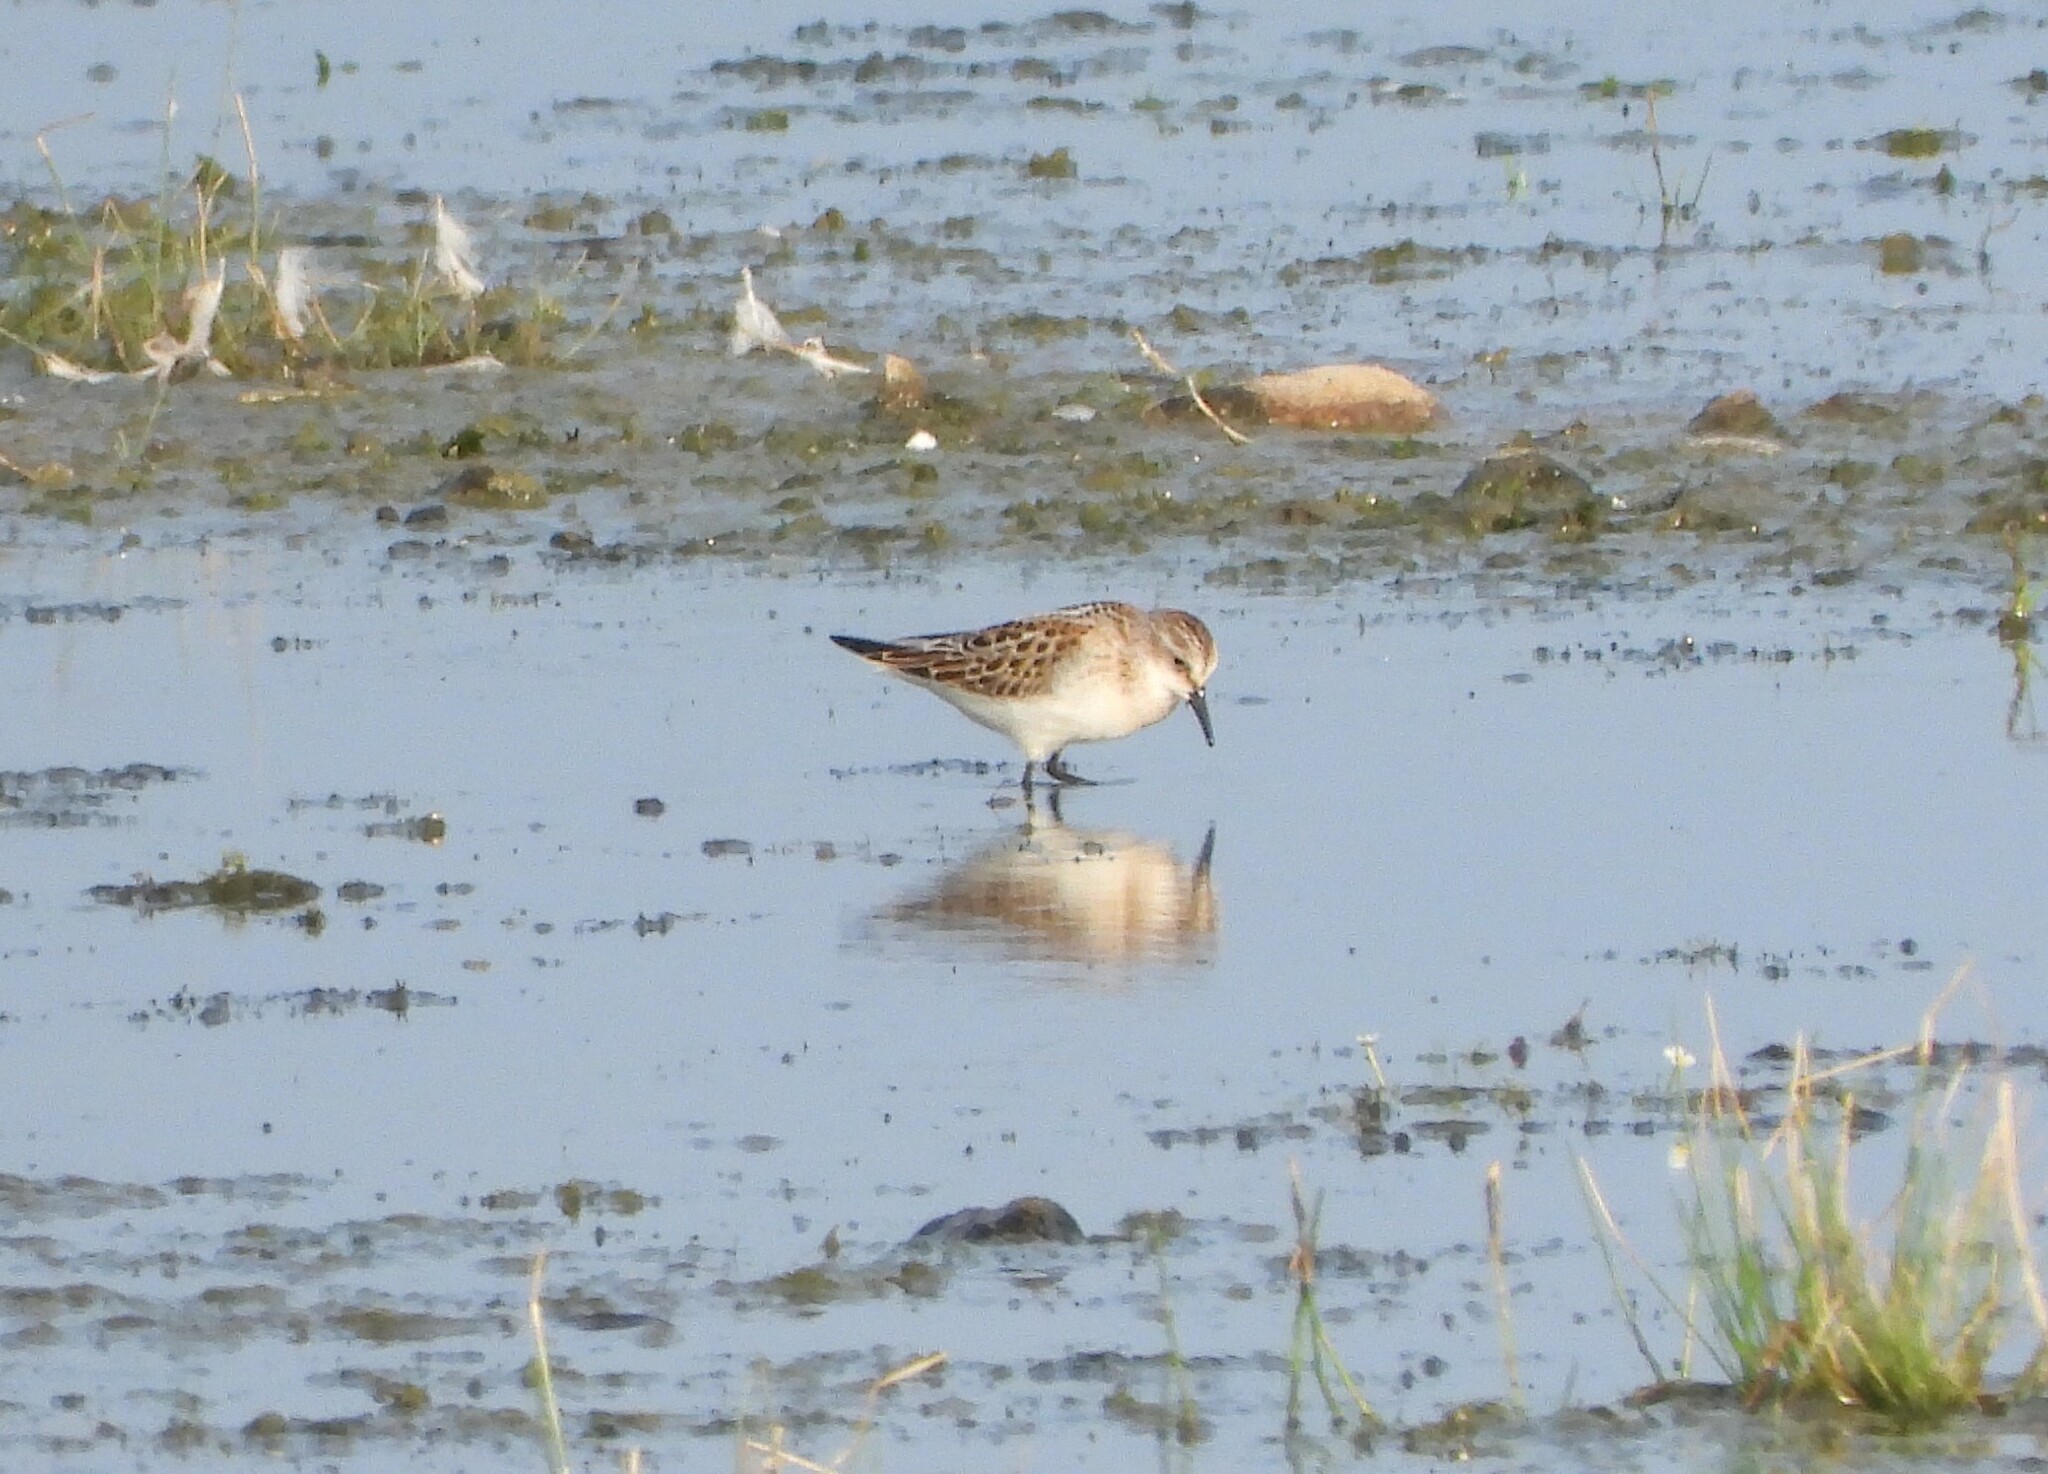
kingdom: Animalia
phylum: Chordata
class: Aves
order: Charadriiformes
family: Scolopacidae
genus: Calidris
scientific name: Calidris minuta
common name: Little stint
